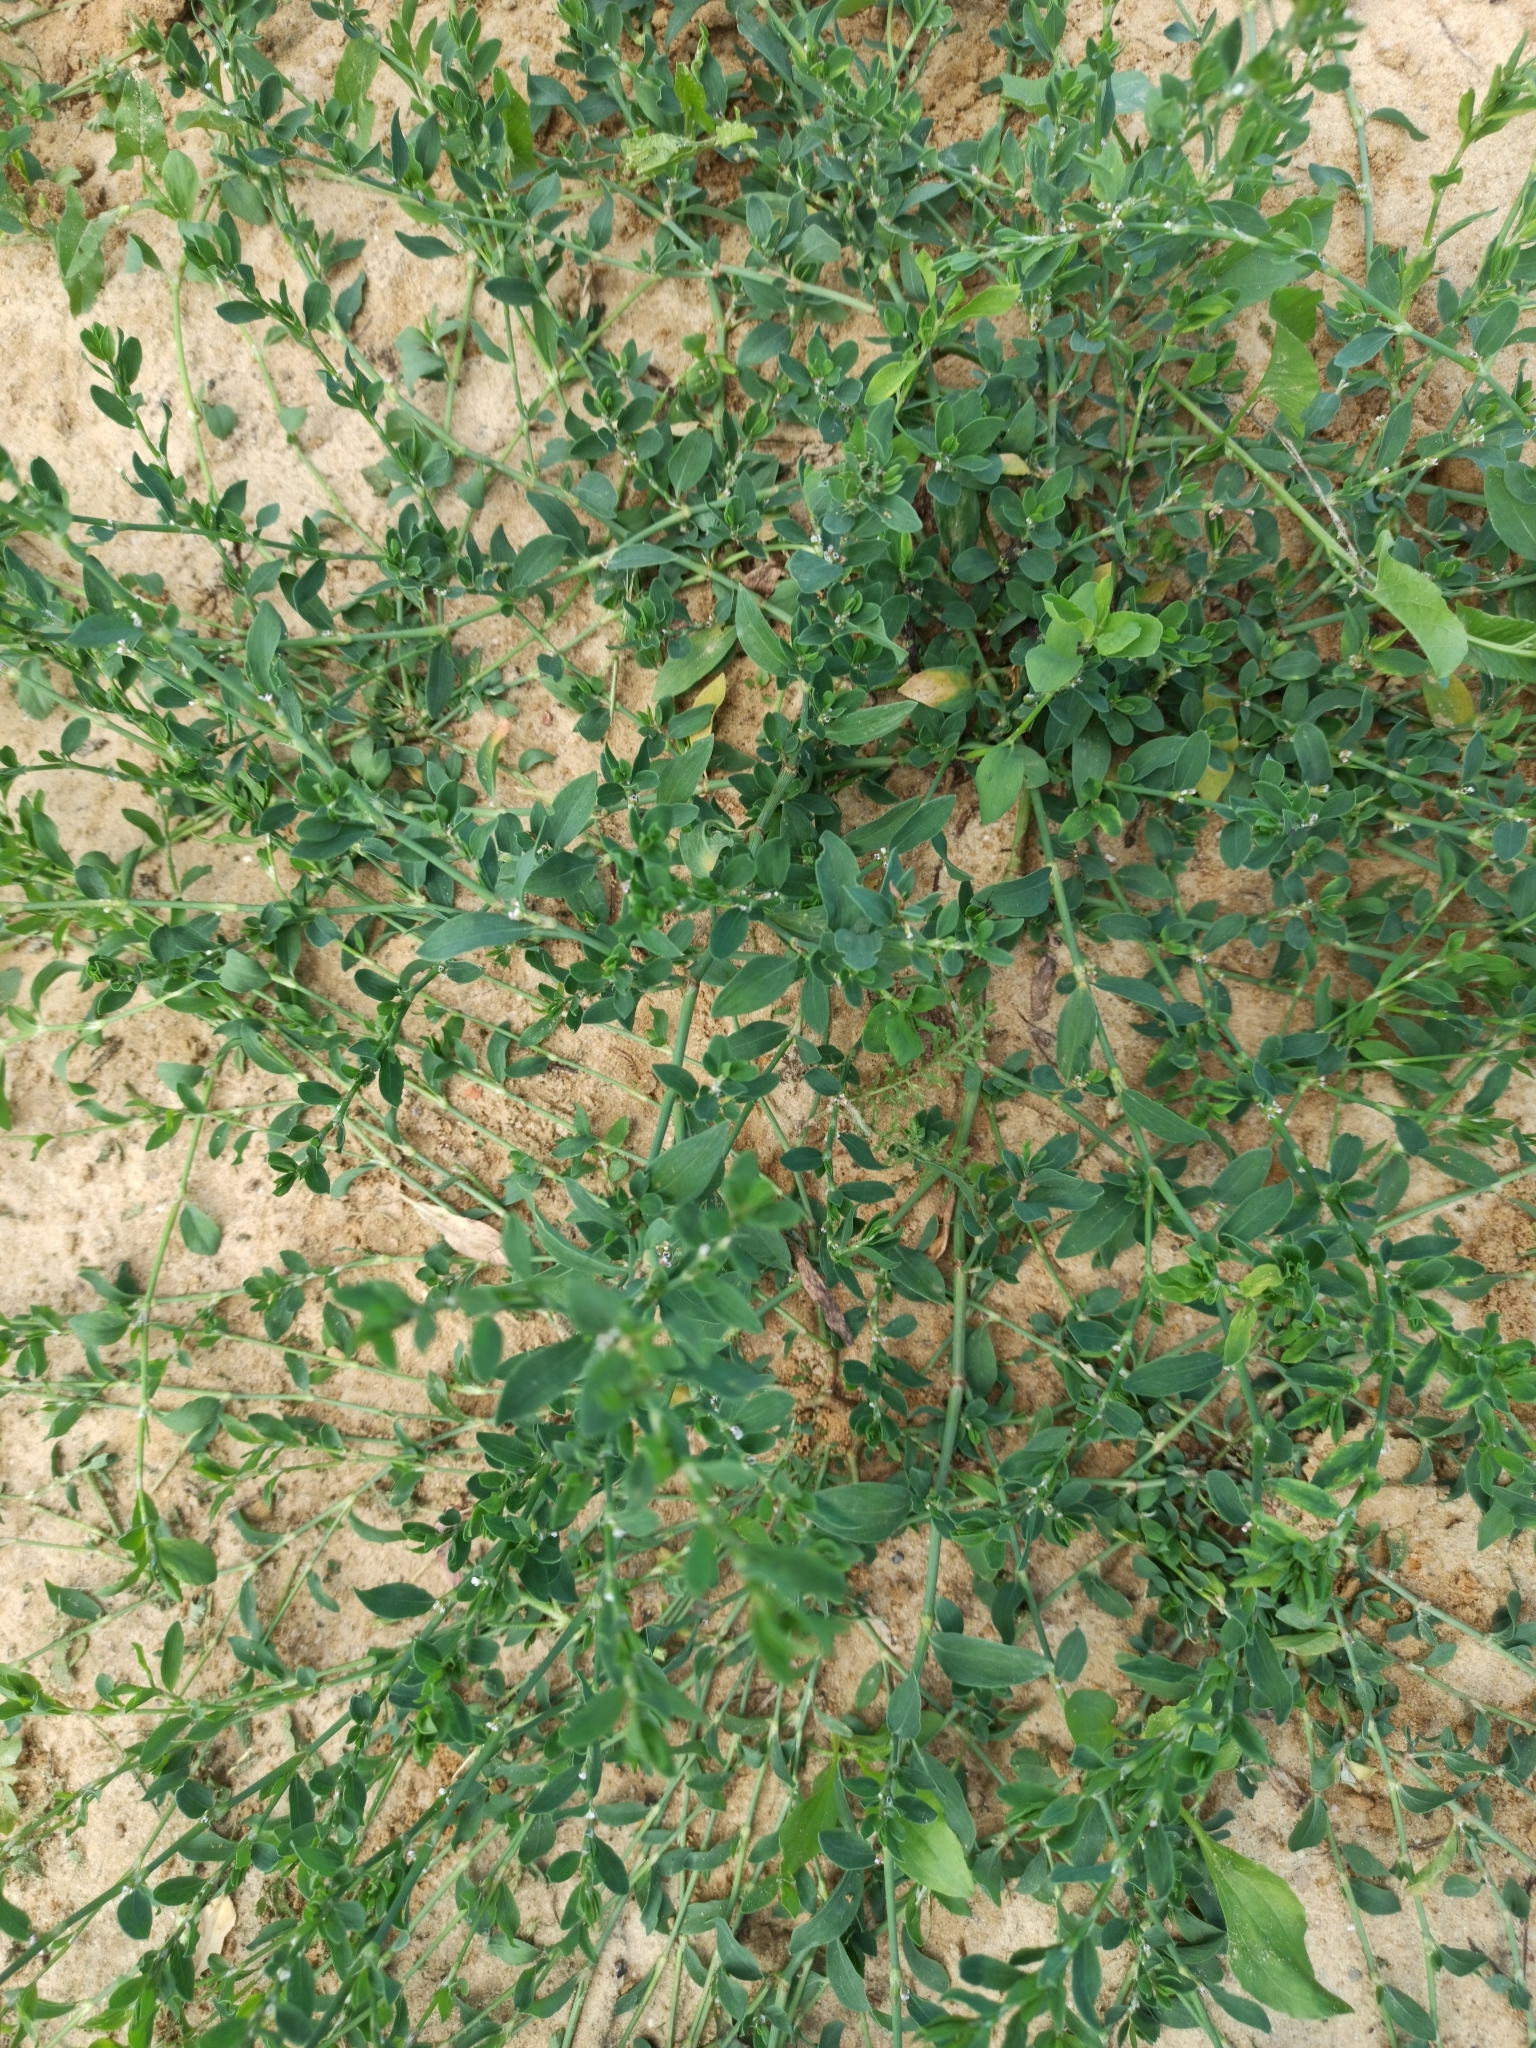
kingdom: Plantae
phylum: Tracheophyta
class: Magnoliopsida
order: Caryophyllales
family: Polygonaceae
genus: Polygonum
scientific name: Polygonum
